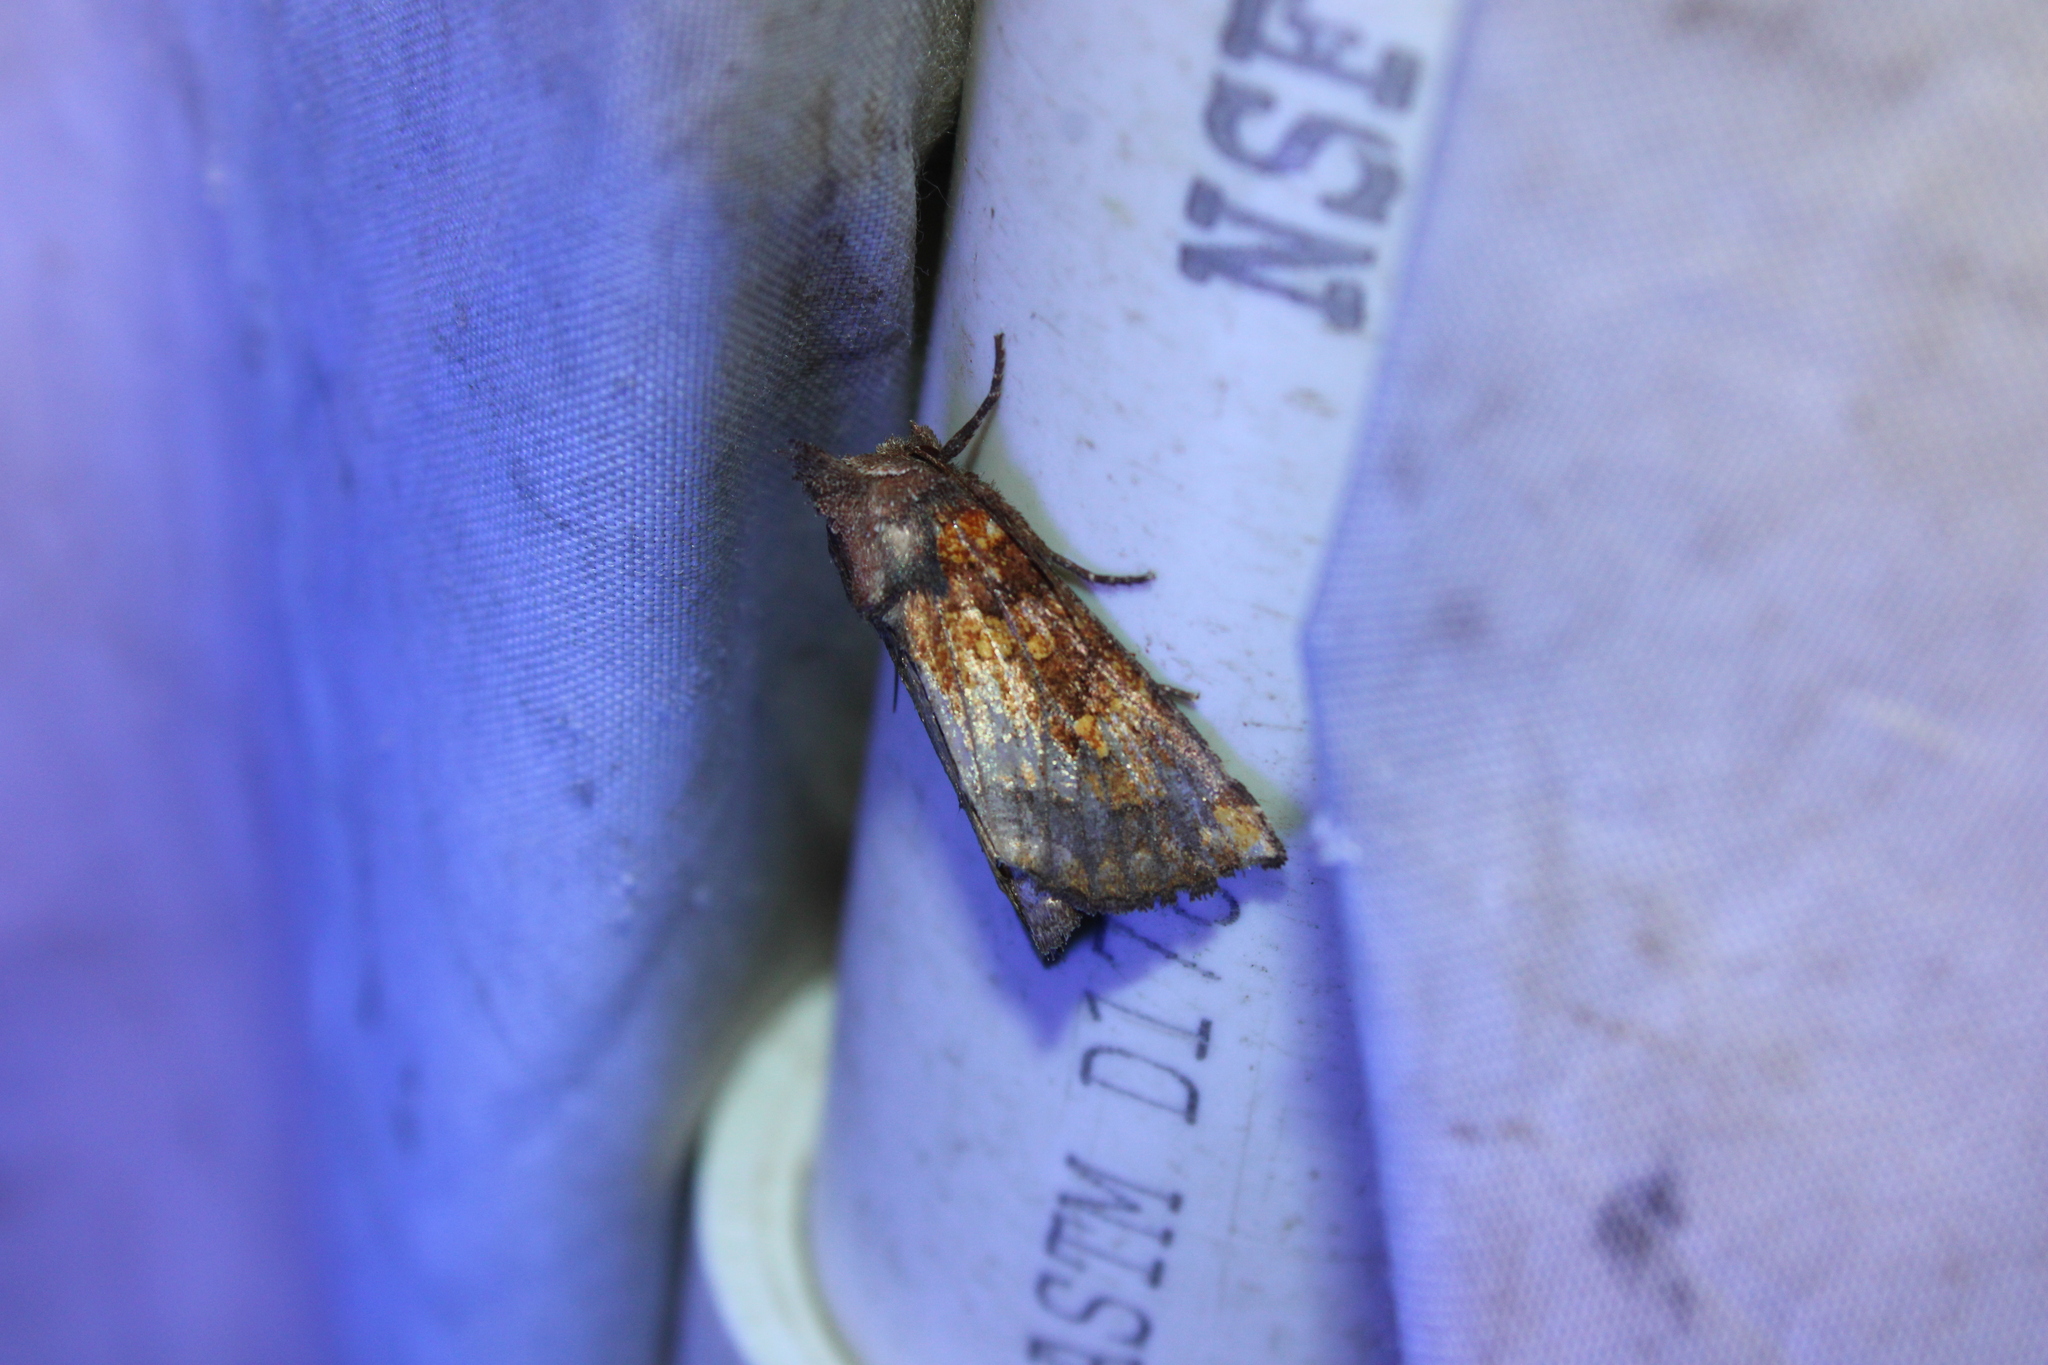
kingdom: Animalia
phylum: Arthropoda
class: Insecta
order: Lepidoptera
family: Noctuidae
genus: Papaipema
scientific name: Papaipema impecuniosa
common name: Aster borer moth
